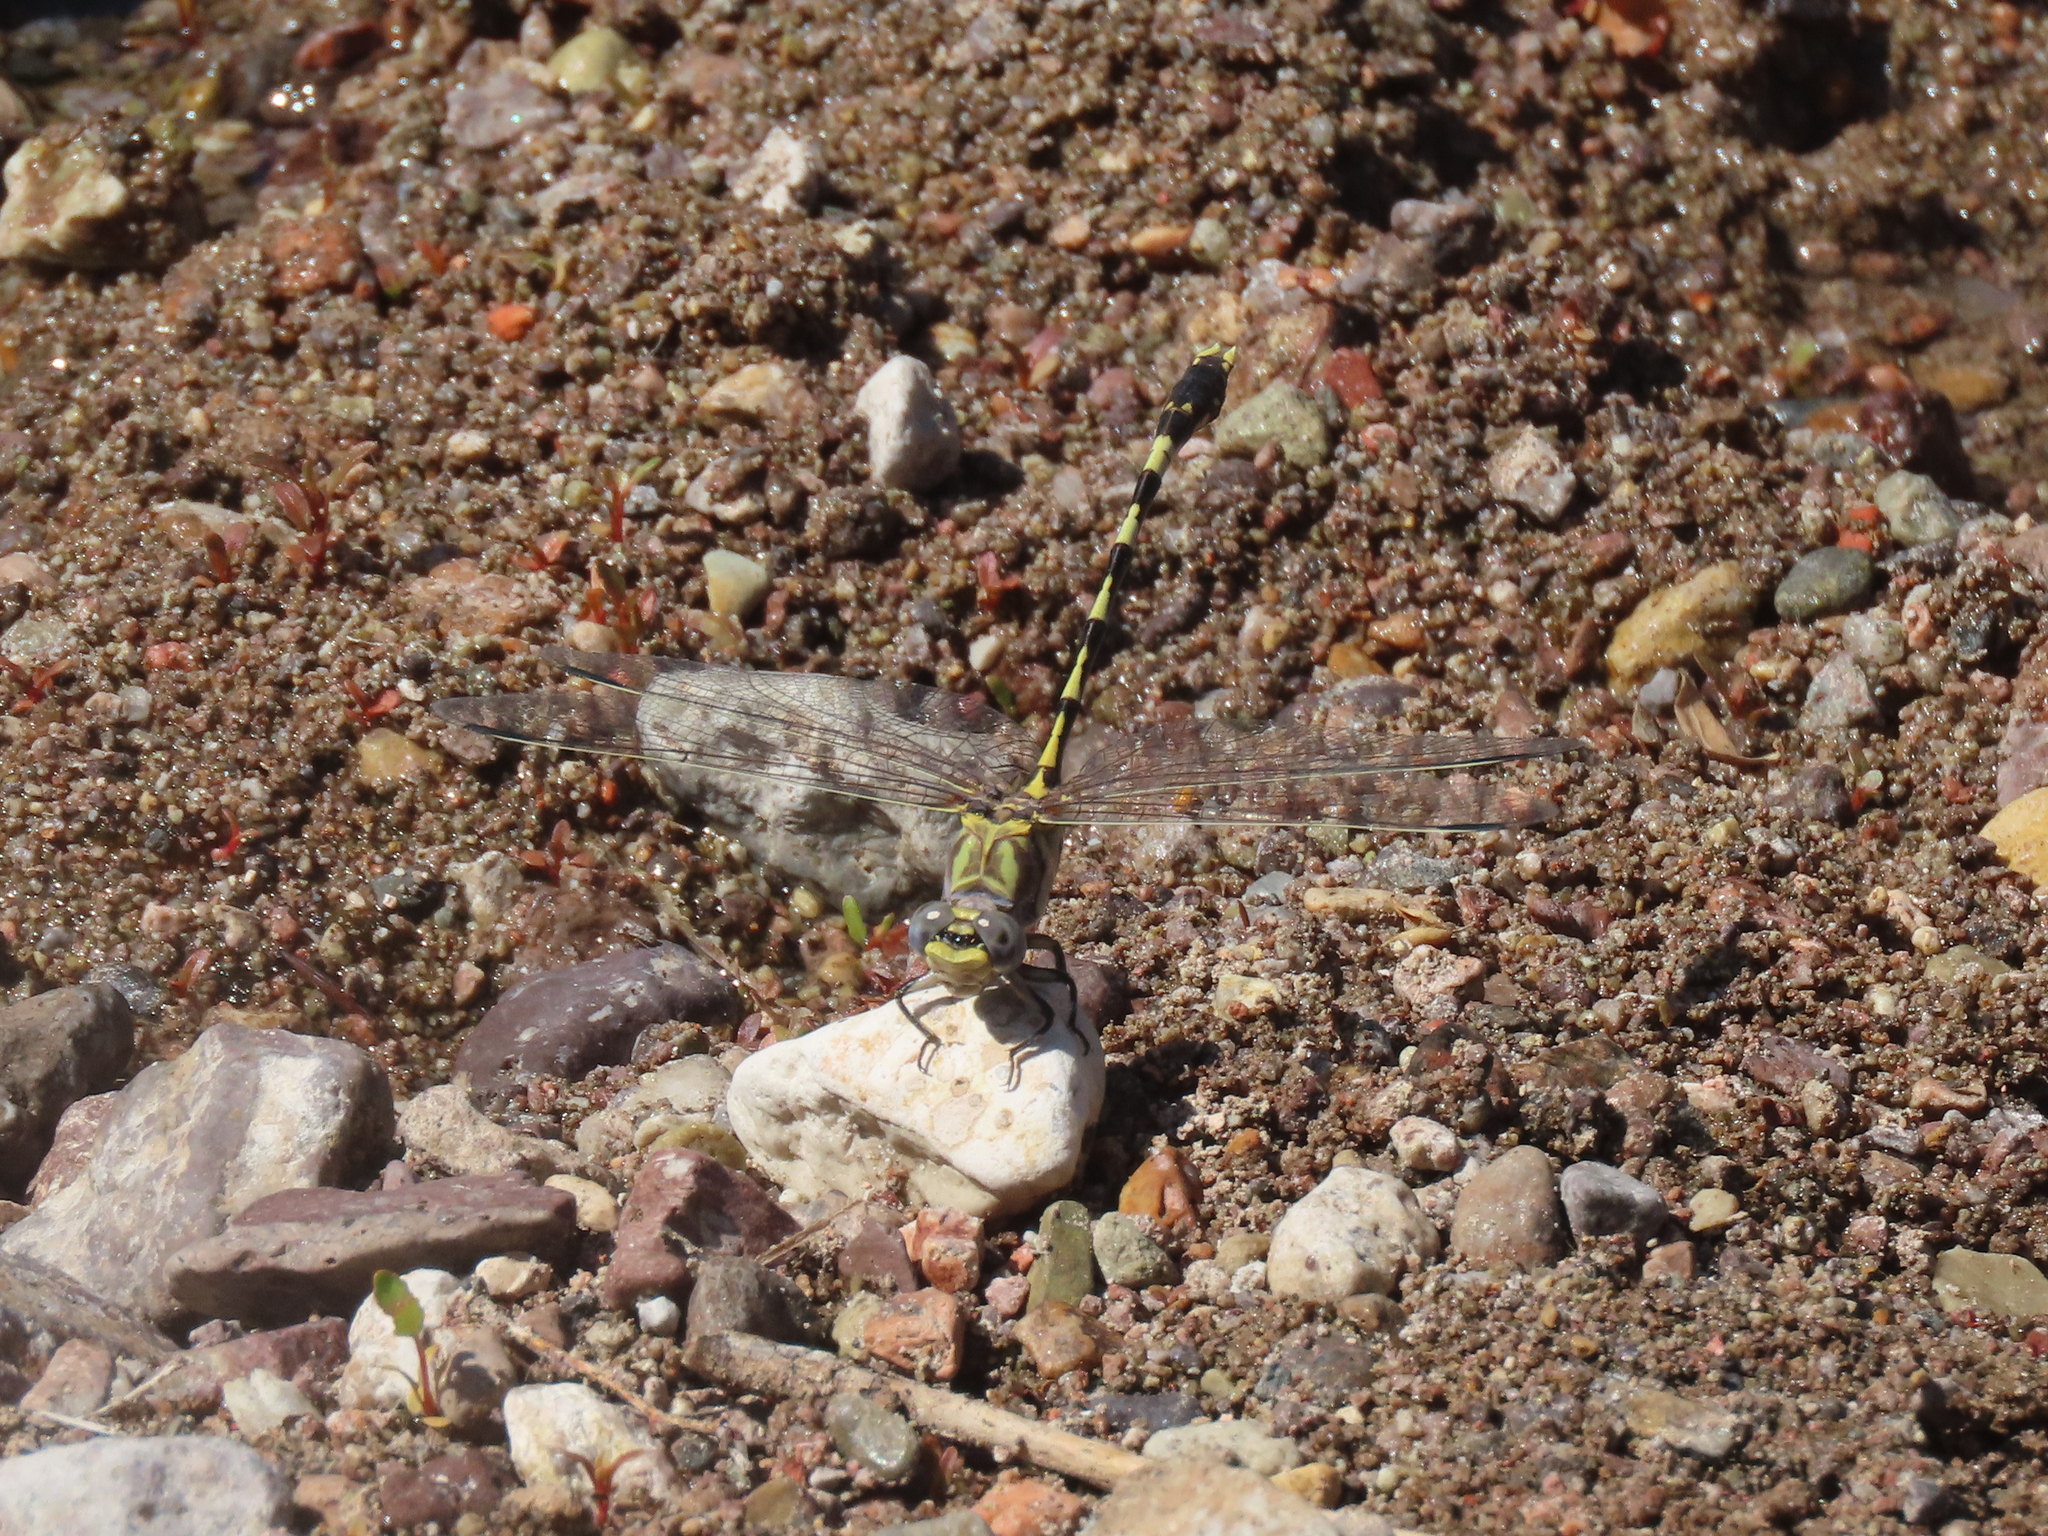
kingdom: Animalia
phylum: Arthropoda
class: Insecta
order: Odonata
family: Gomphidae
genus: Progomphus
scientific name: Progomphus borealis
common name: Gray sanddragon
